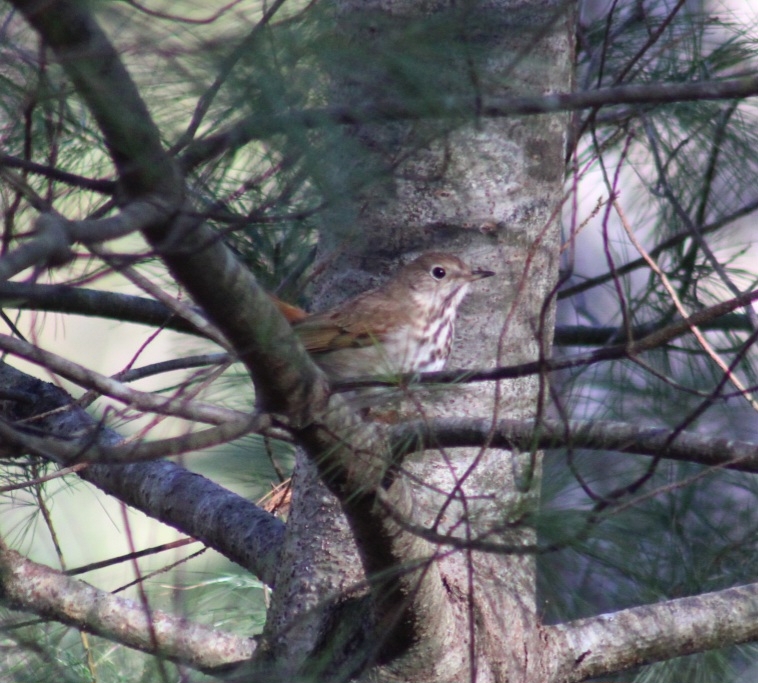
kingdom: Animalia
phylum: Chordata
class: Aves
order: Passeriformes
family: Turdidae
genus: Catharus
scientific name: Catharus guttatus
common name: Hermit thrush
